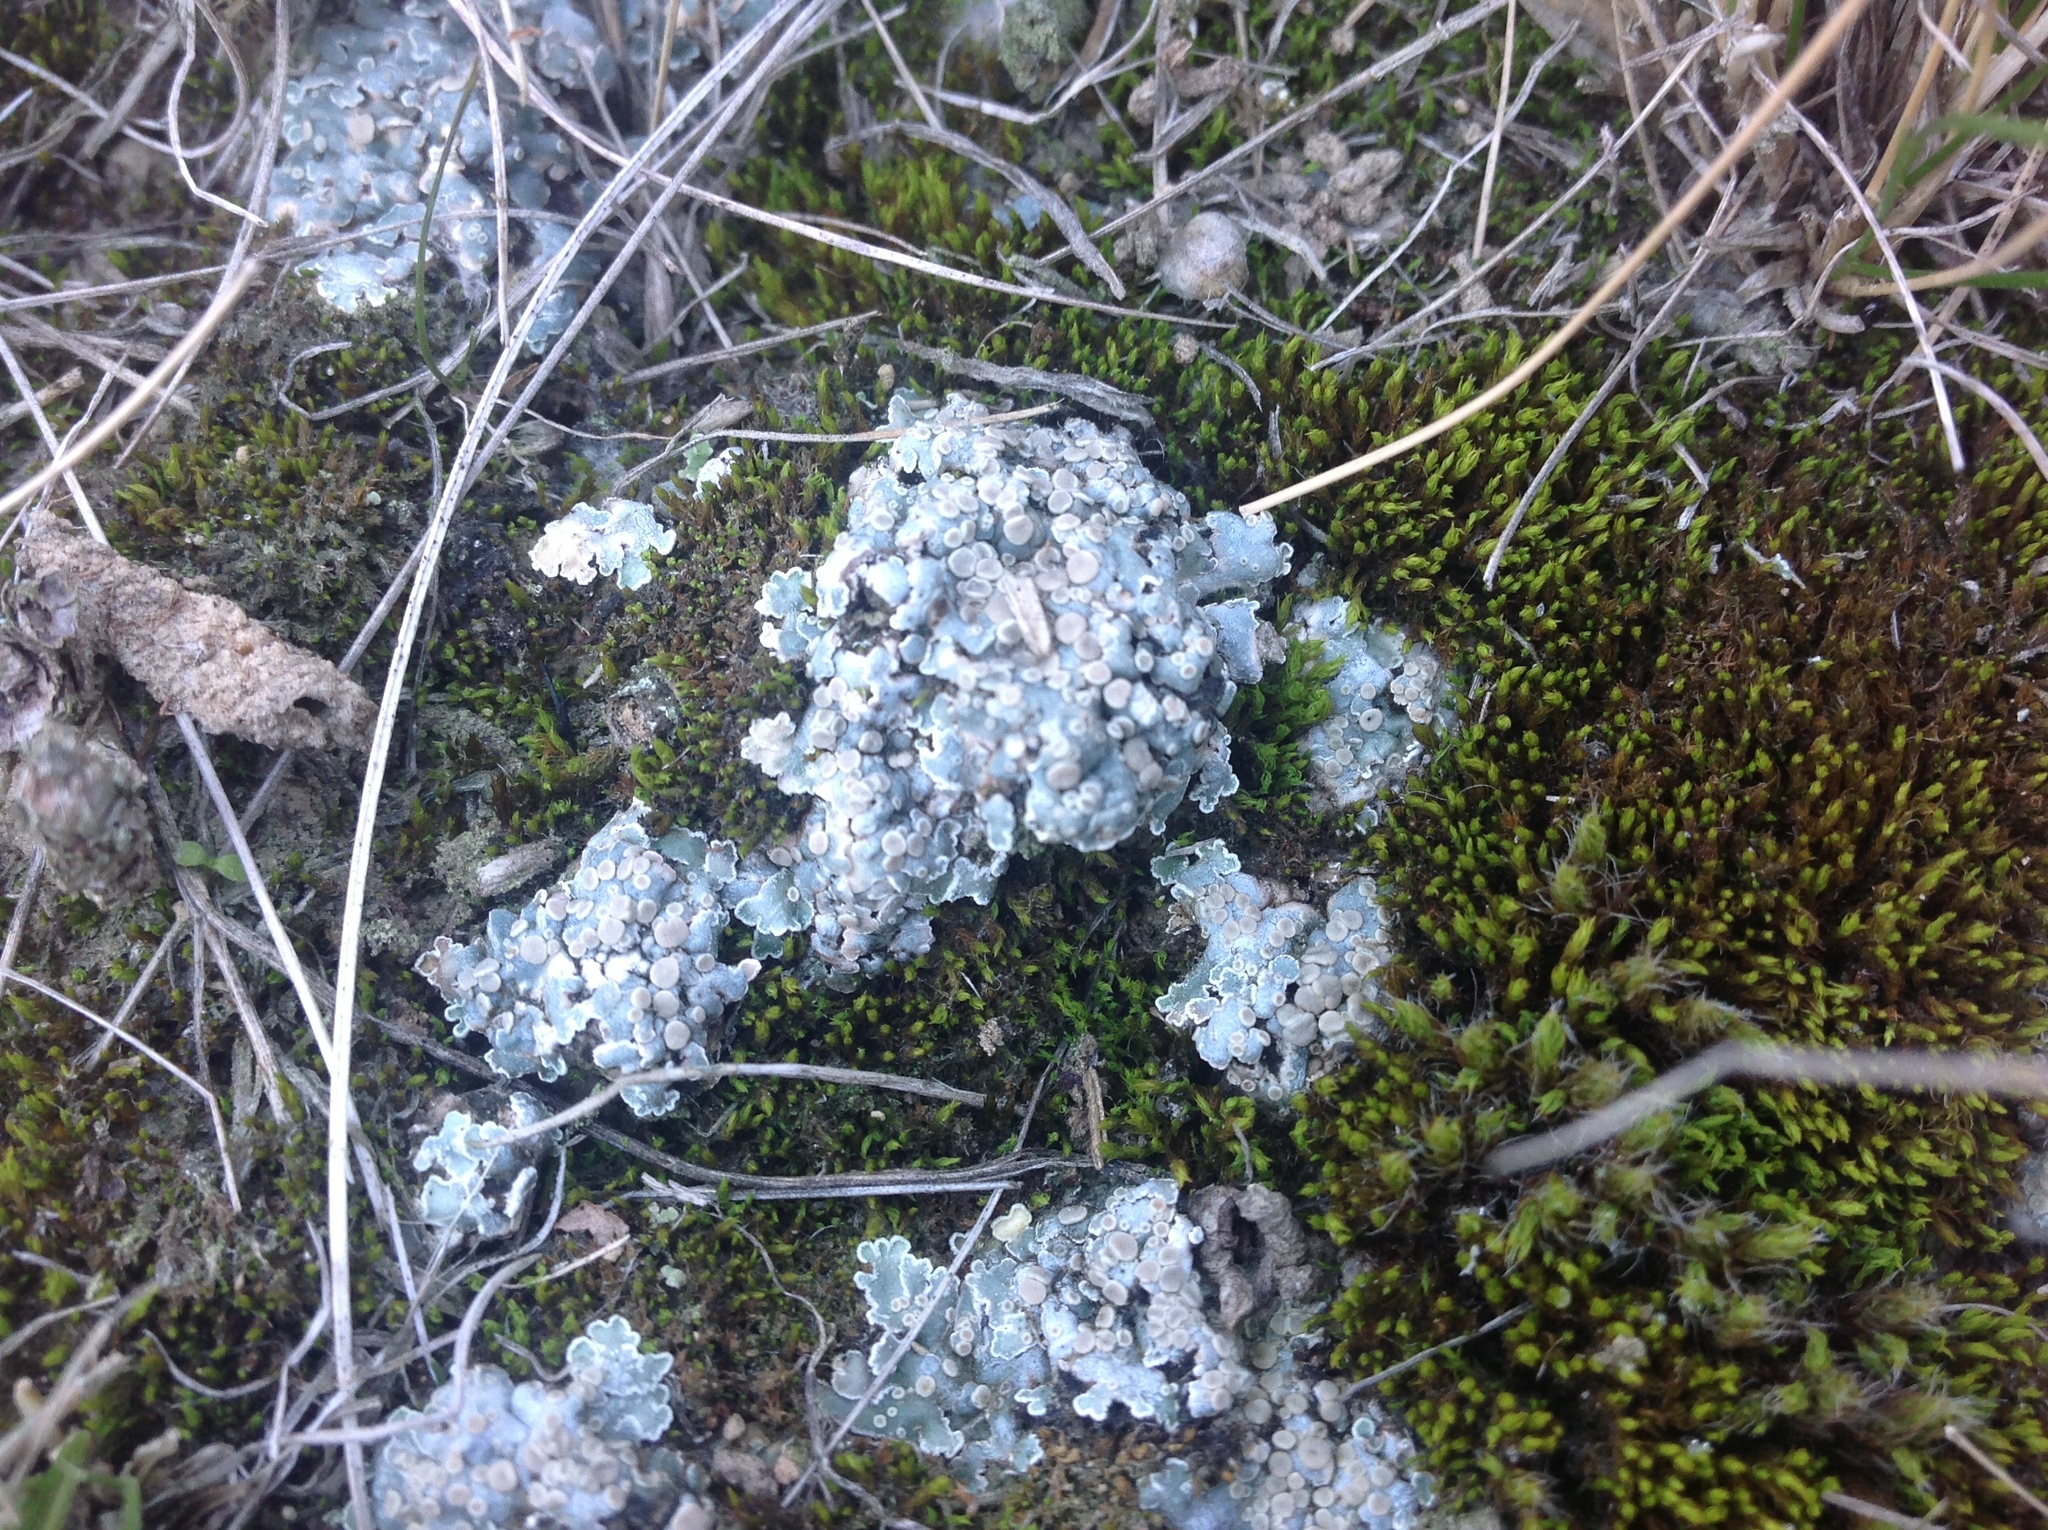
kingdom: Fungi
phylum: Ascomycota
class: Lecanoromycetes
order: Lecanorales
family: Stereocaulaceae
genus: Squamarina
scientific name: Squamarina lentigera
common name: Scaly breck-lichen
